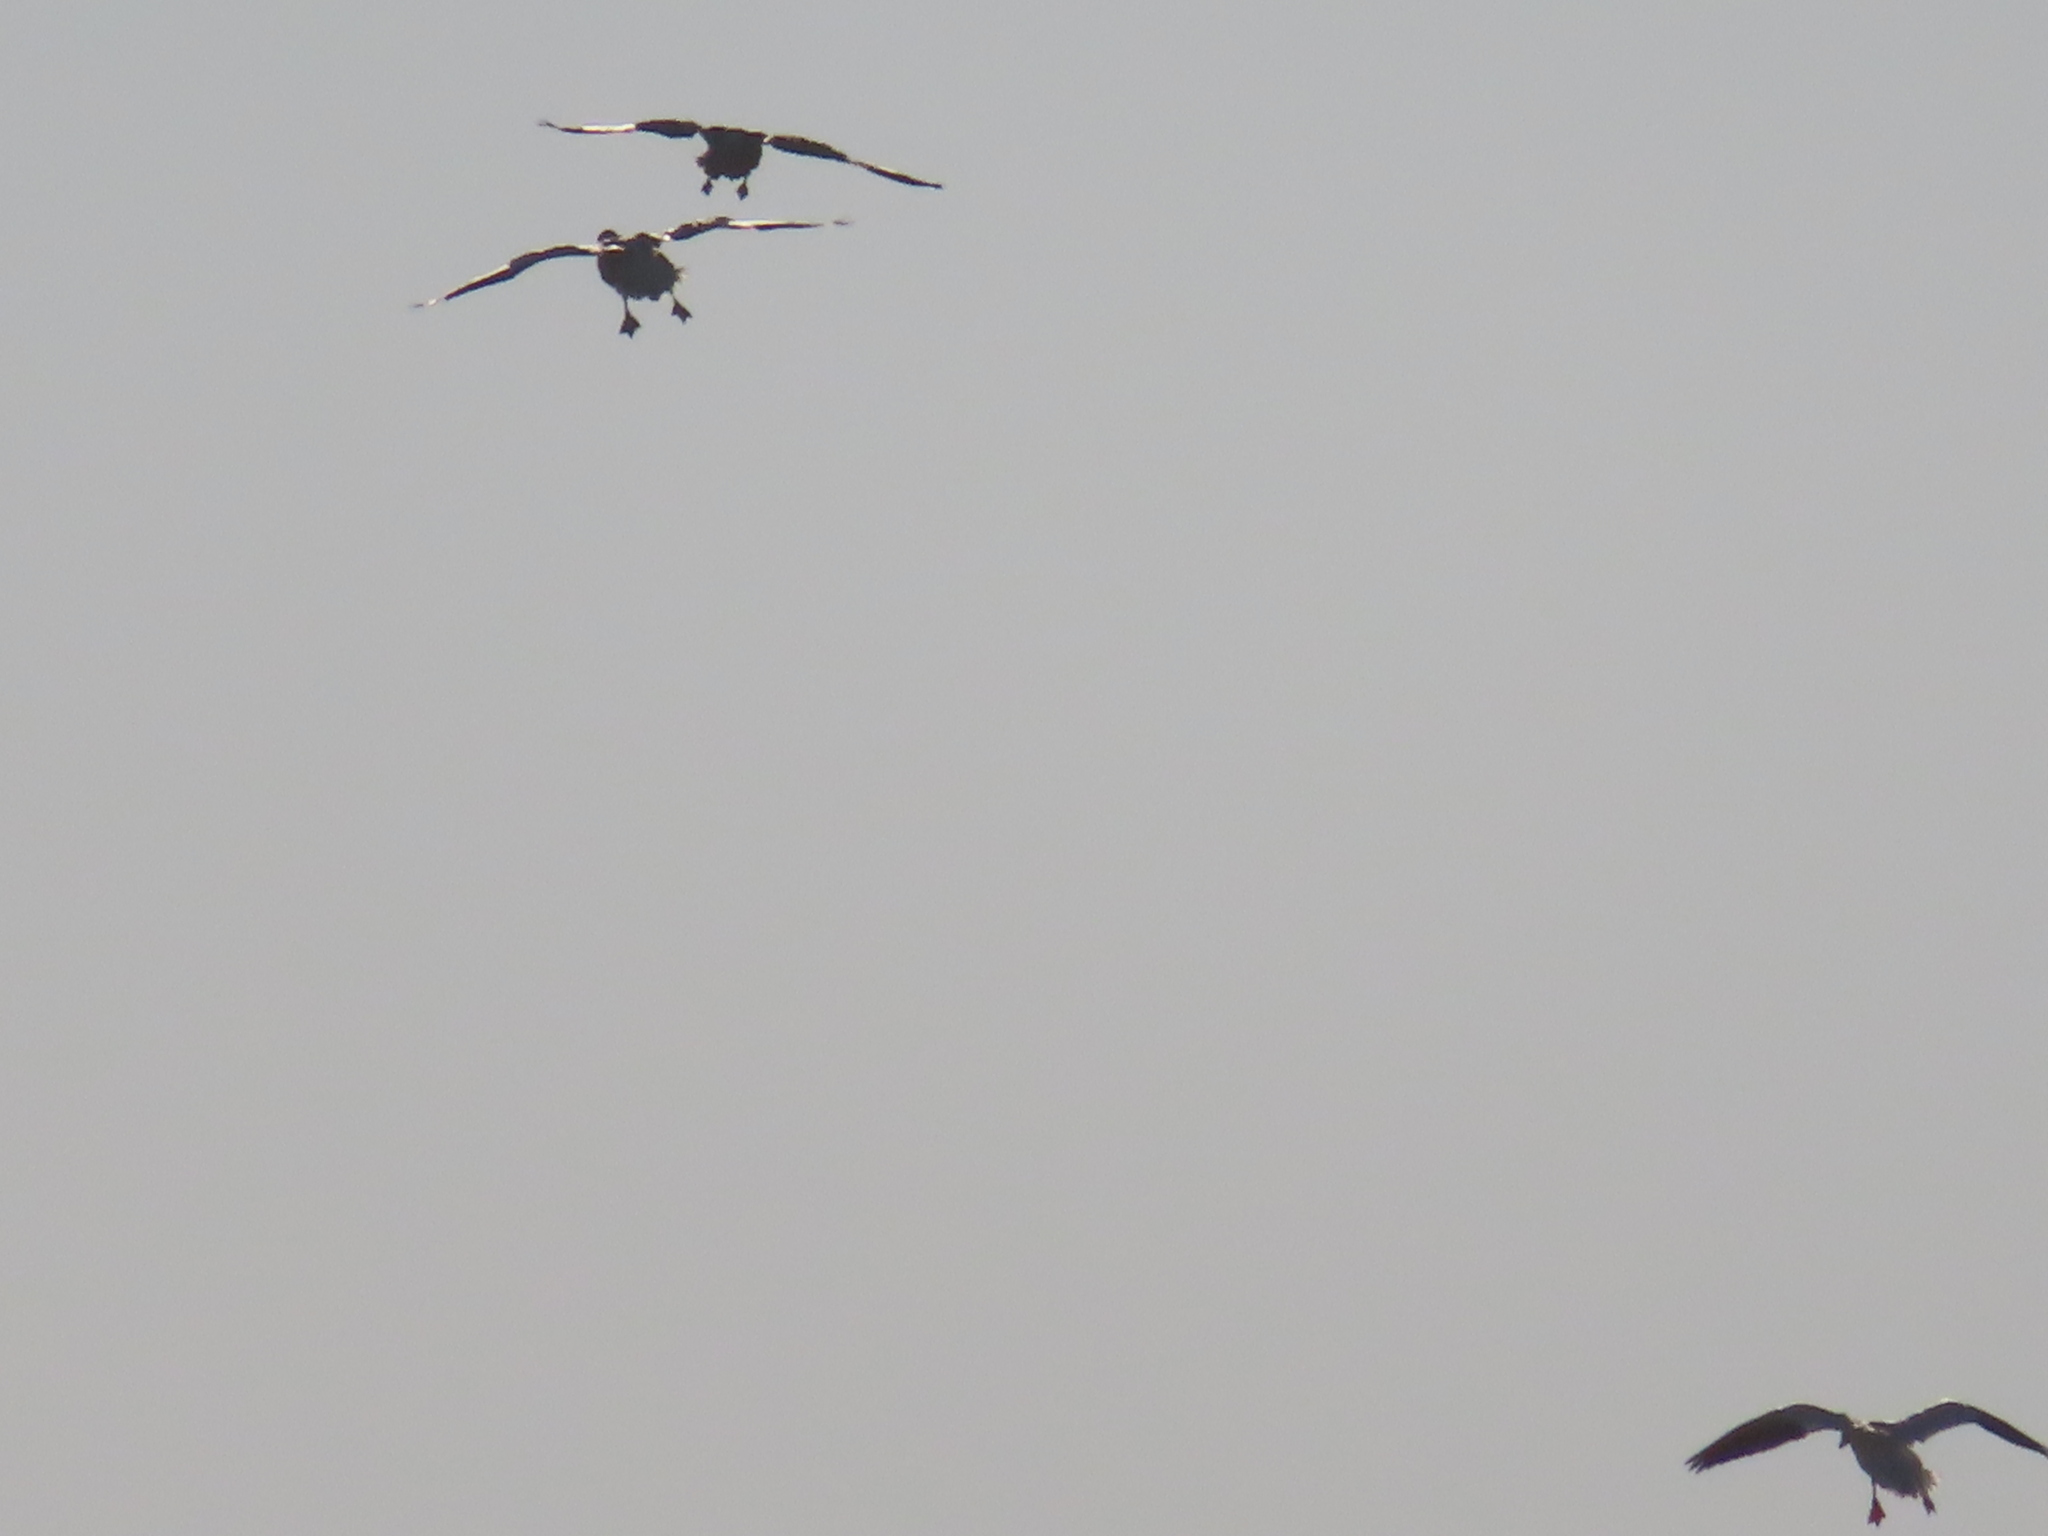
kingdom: Animalia
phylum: Chordata
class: Aves
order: Anseriformes
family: Anatidae
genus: Anser
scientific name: Anser caerulescens
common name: Snow goose
